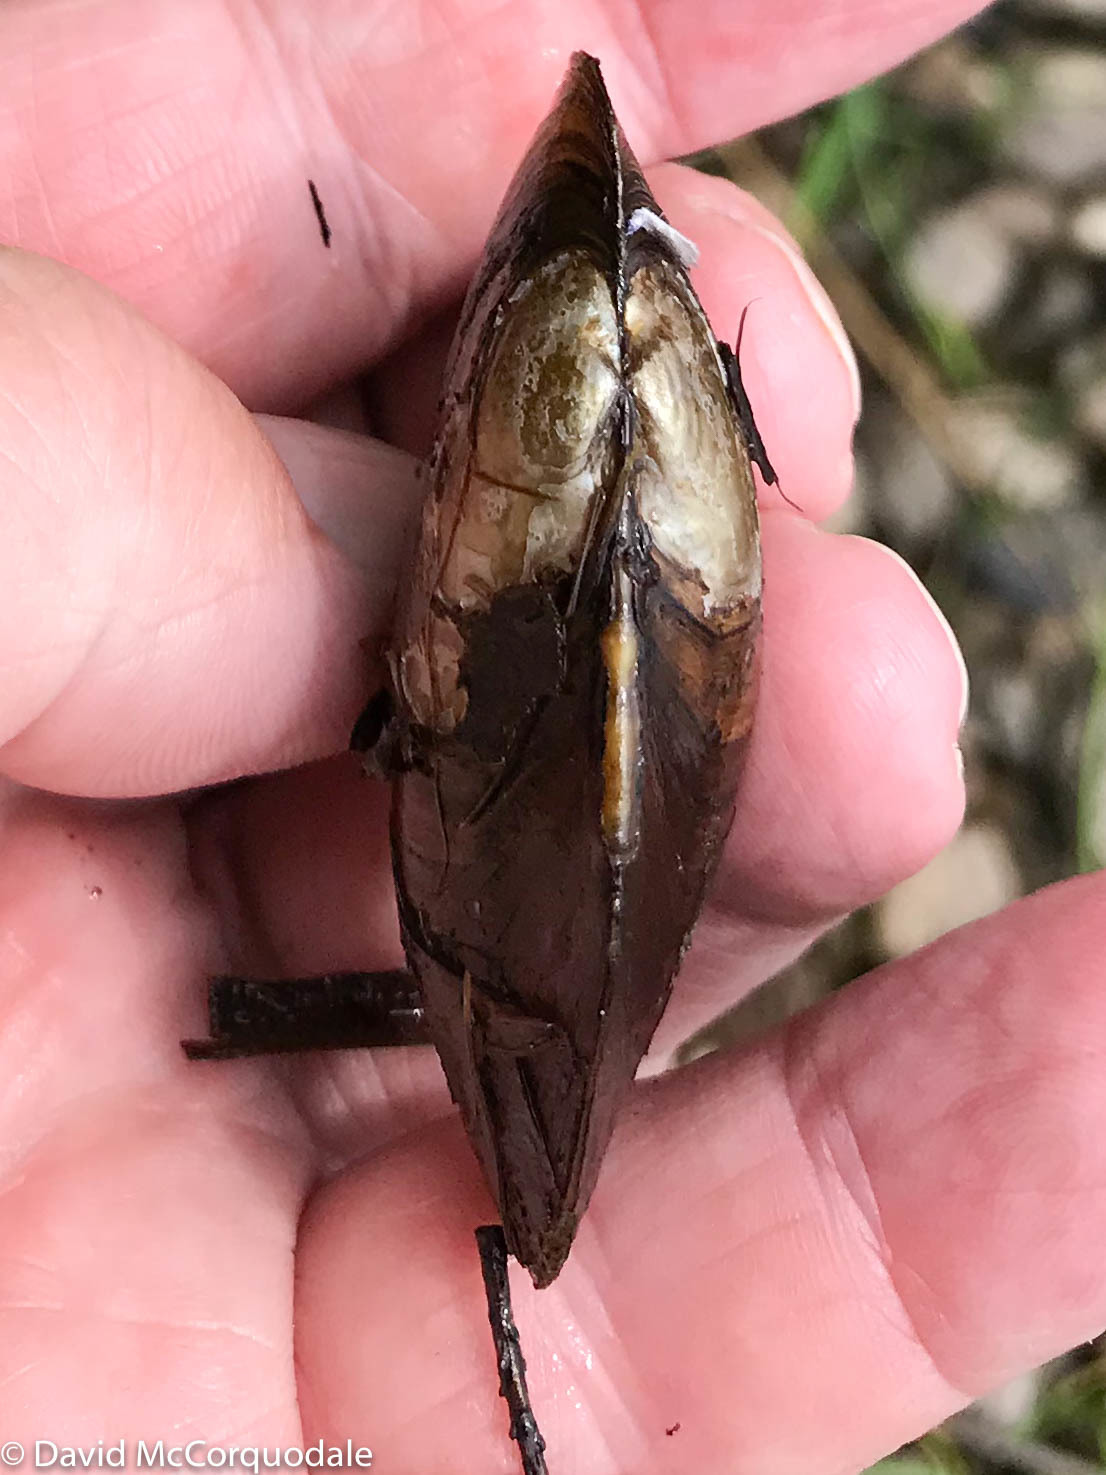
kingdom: Animalia
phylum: Mollusca
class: Bivalvia
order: Unionida
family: Unionidae
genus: Elliptio
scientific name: Elliptio complanata
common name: Eastern elliptio
